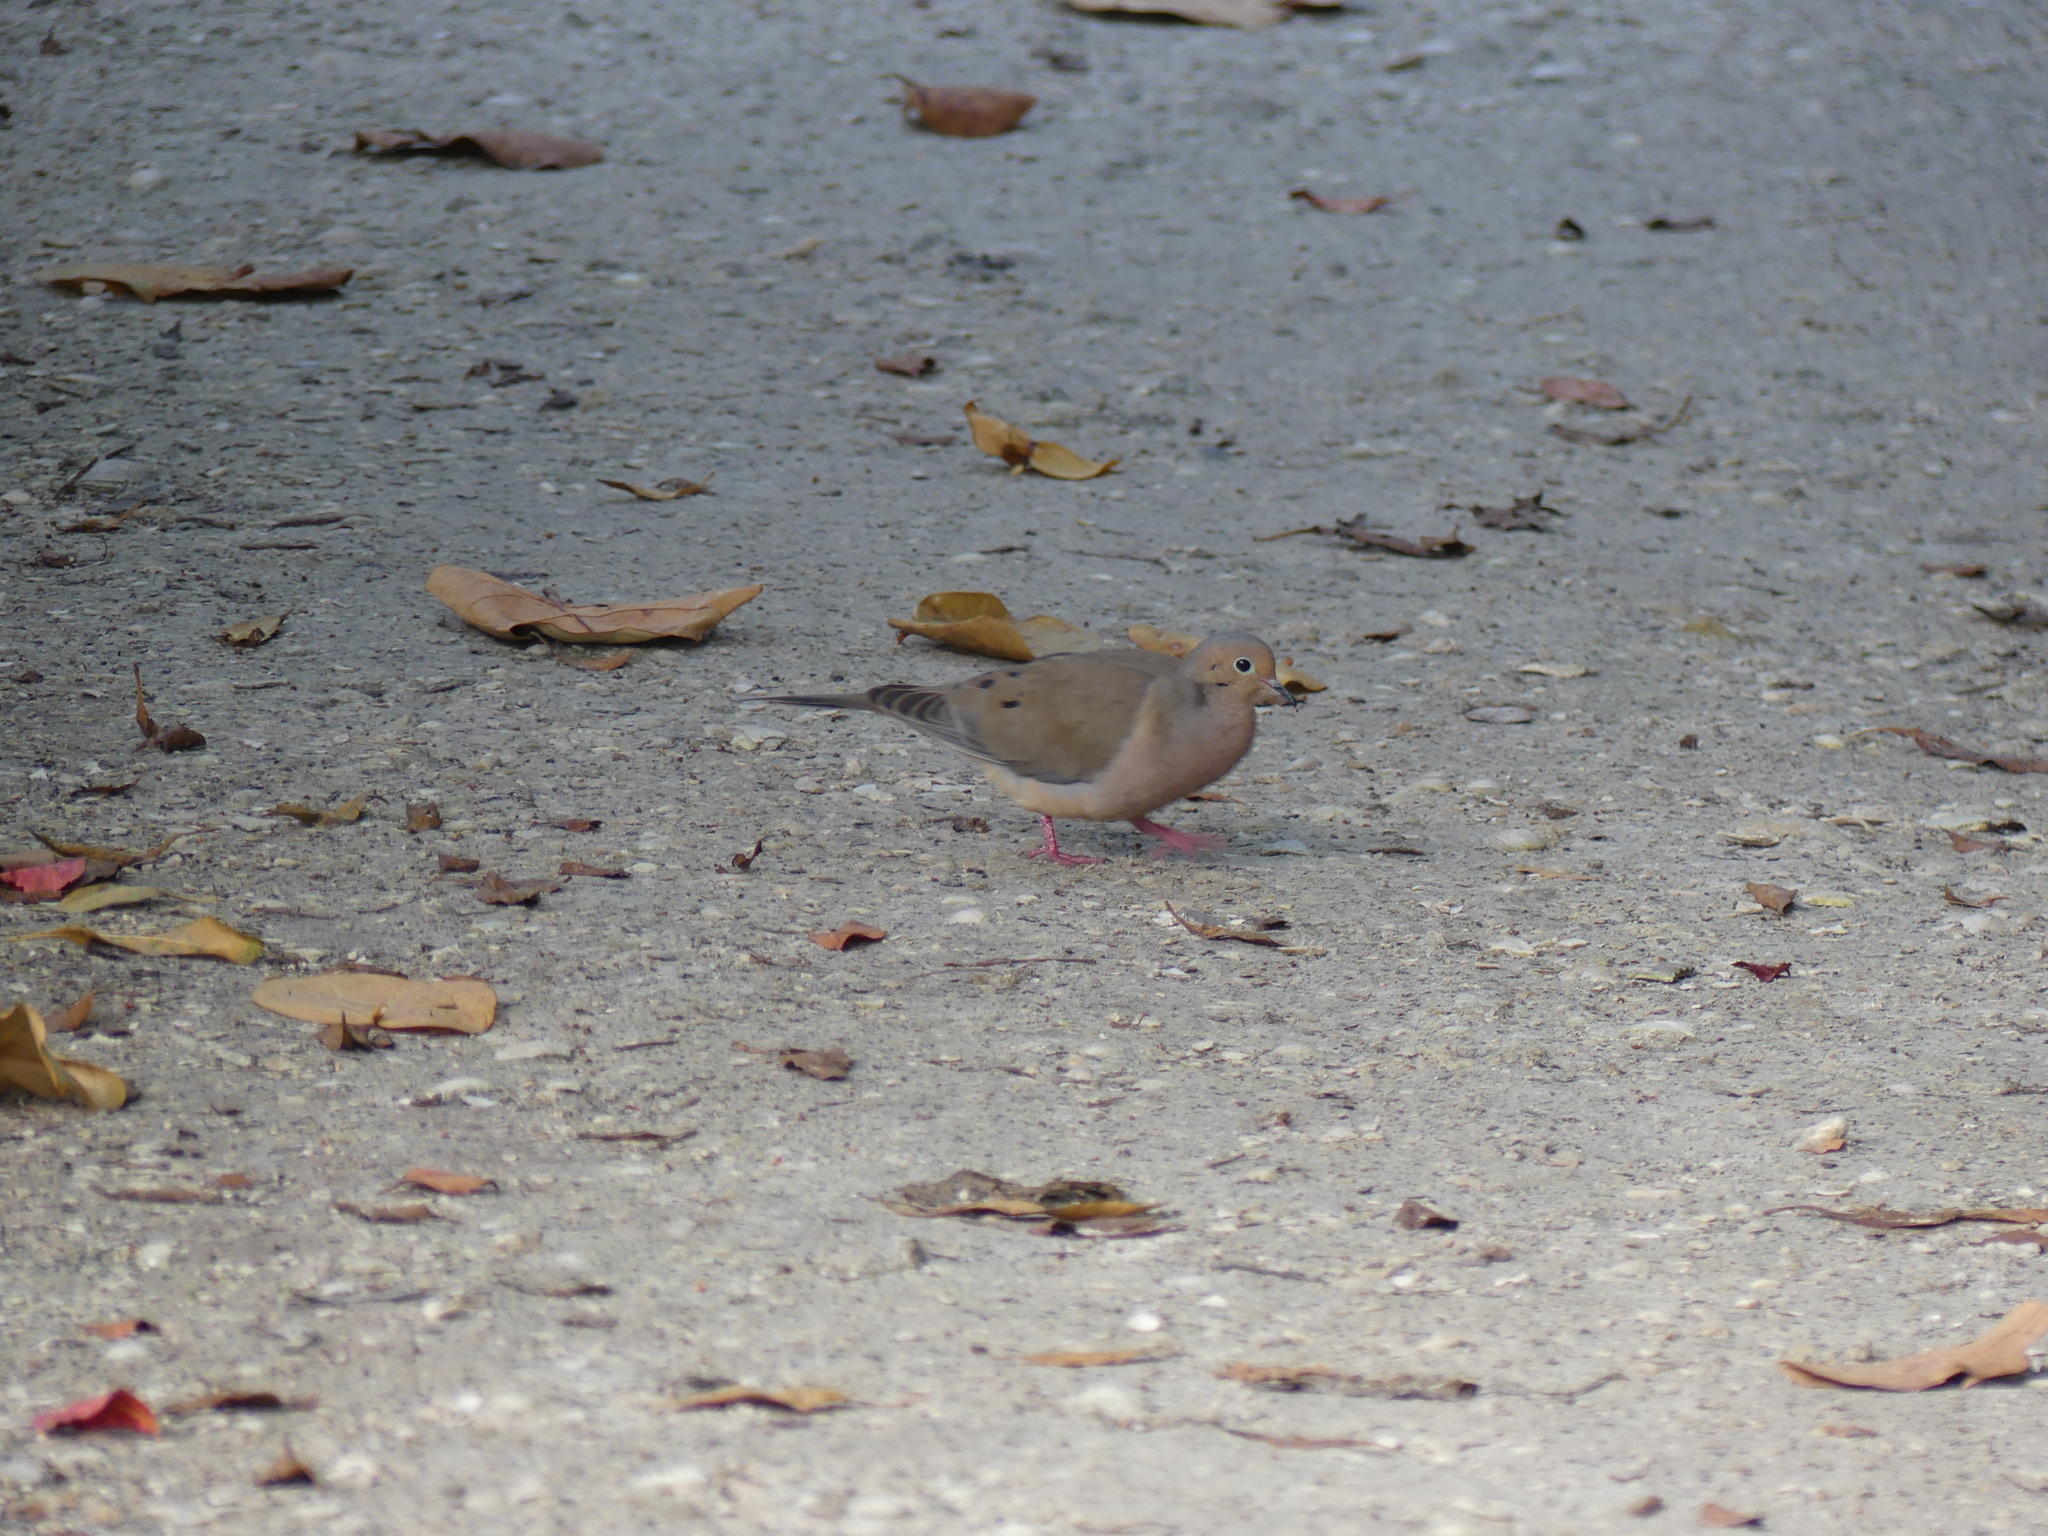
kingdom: Animalia
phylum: Chordata
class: Aves
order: Columbiformes
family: Columbidae
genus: Zenaida
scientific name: Zenaida macroura
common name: Mourning dove
